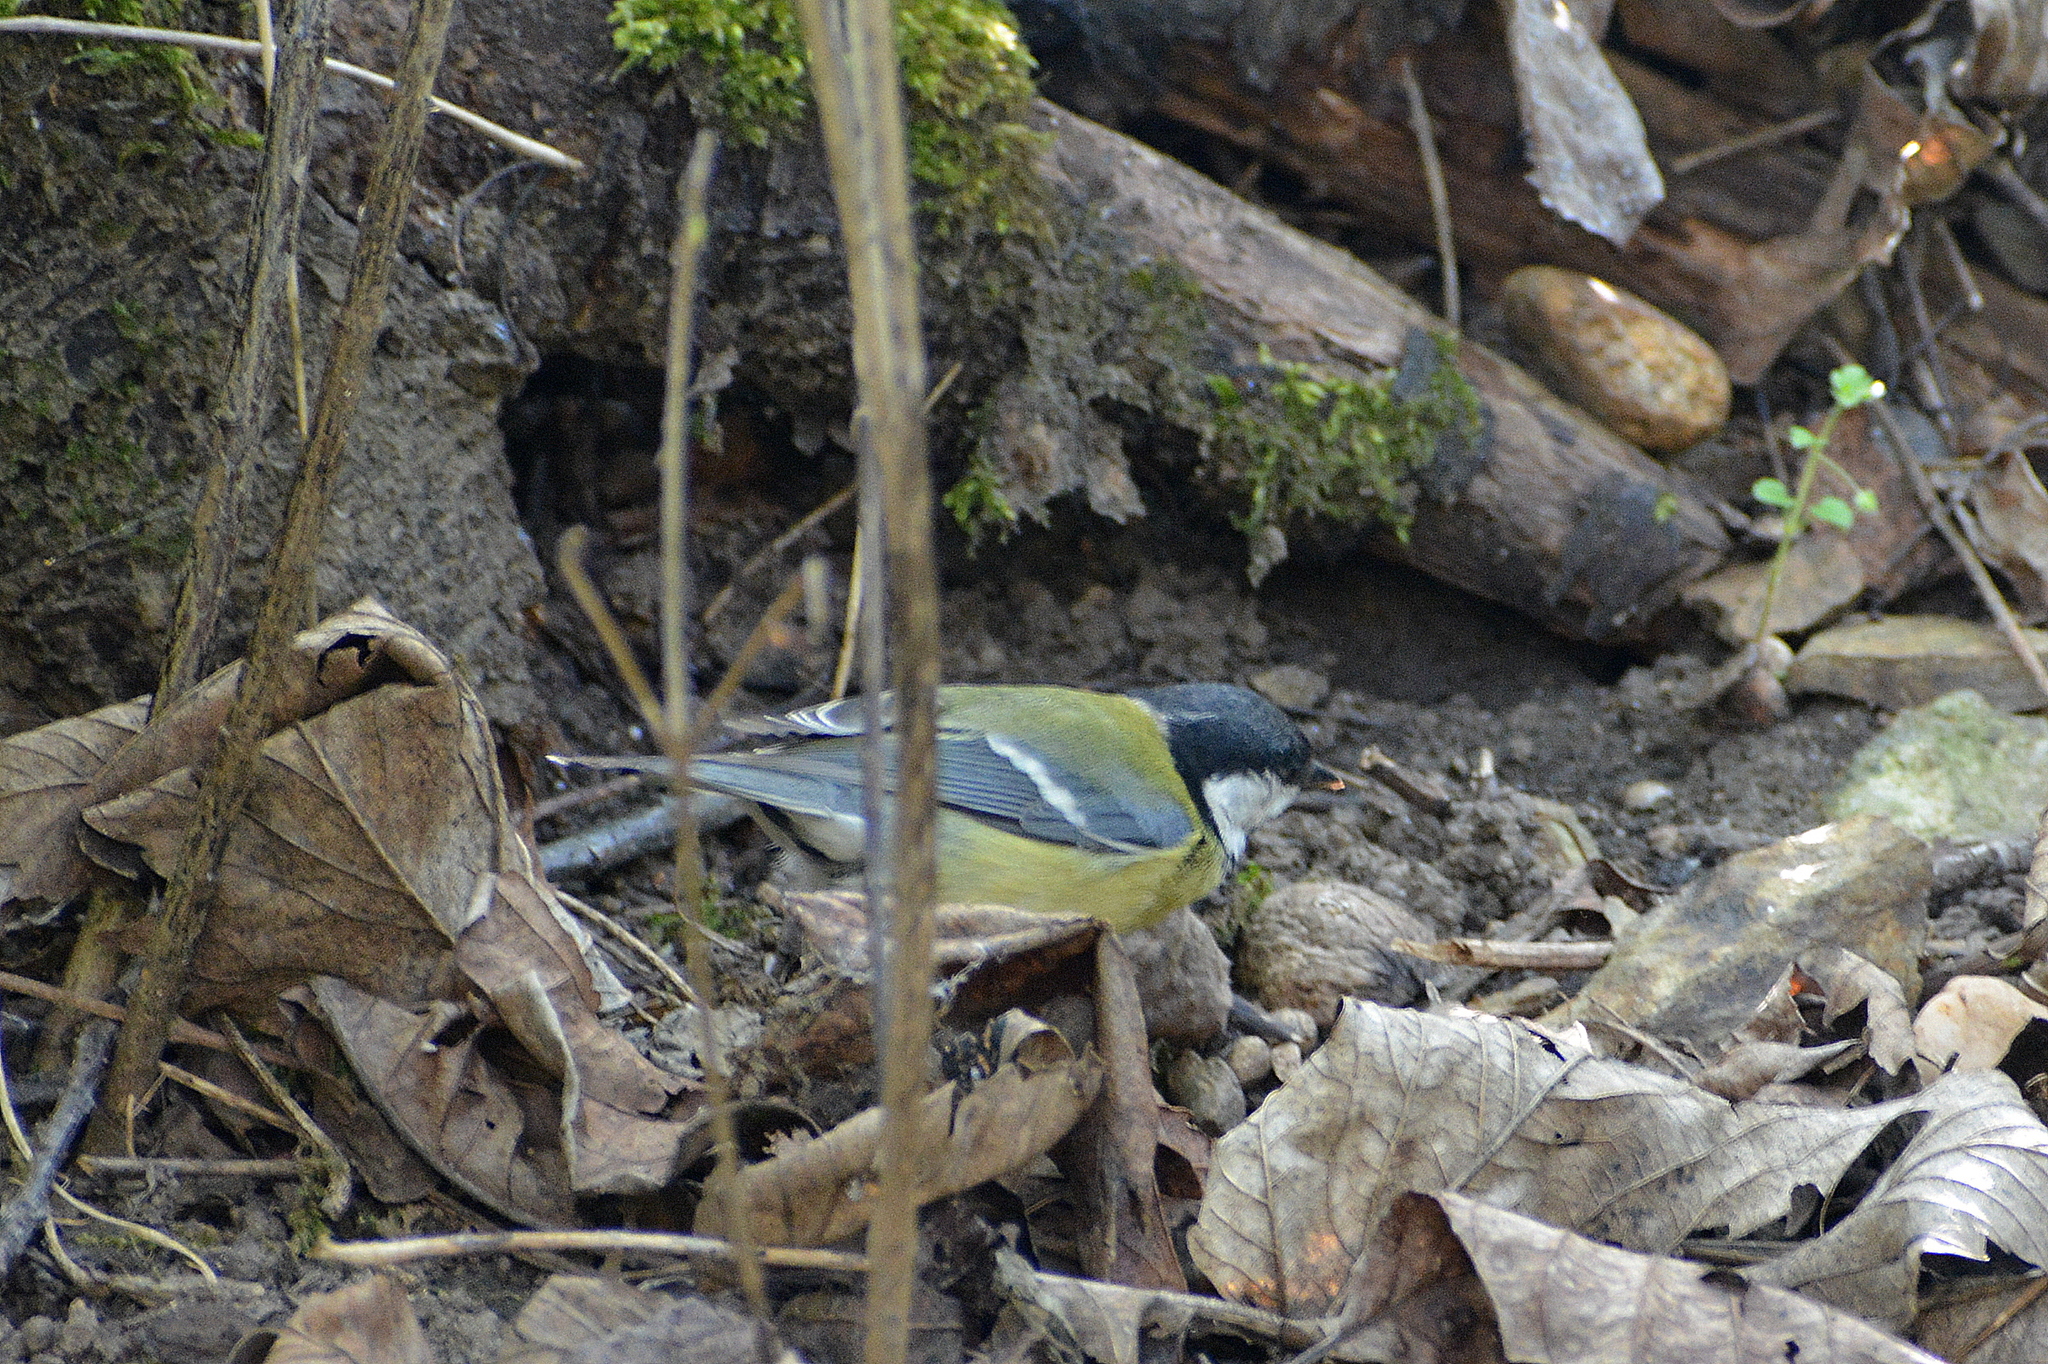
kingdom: Animalia
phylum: Chordata
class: Aves
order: Passeriformes
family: Paridae
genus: Parus
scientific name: Parus major
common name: Great tit
